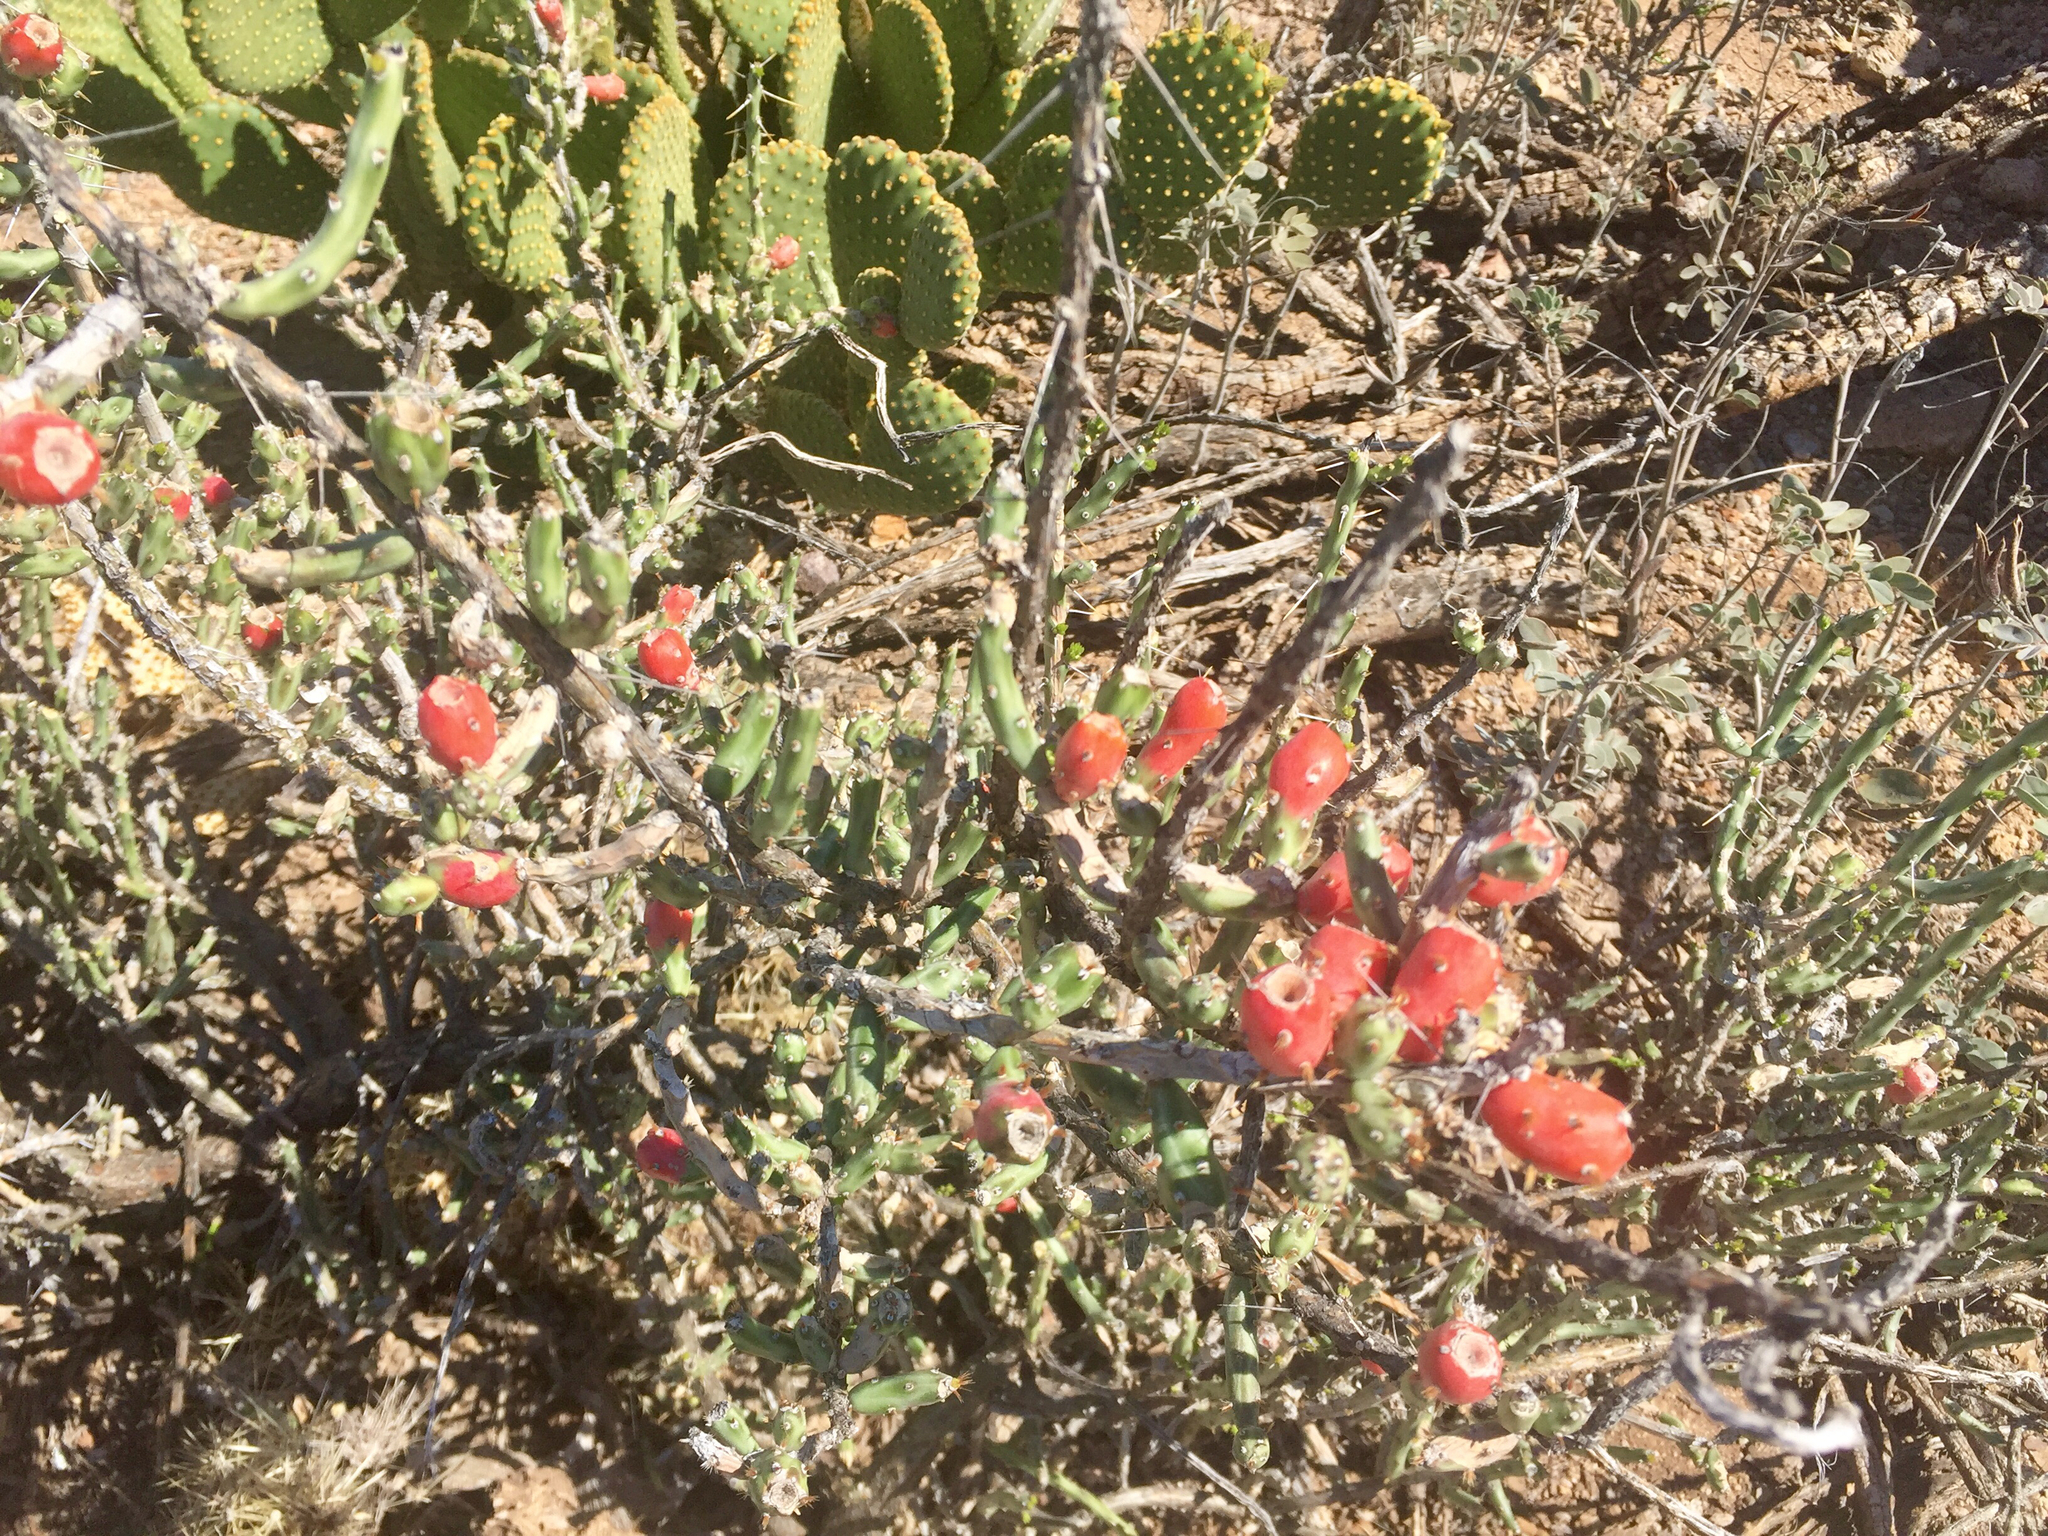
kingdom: Plantae
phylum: Tracheophyta
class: Magnoliopsida
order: Caryophyllales
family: Cactaceae
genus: Cylindropuntia
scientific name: Cylindropuntia leptocaulis
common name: Christmas cactus
